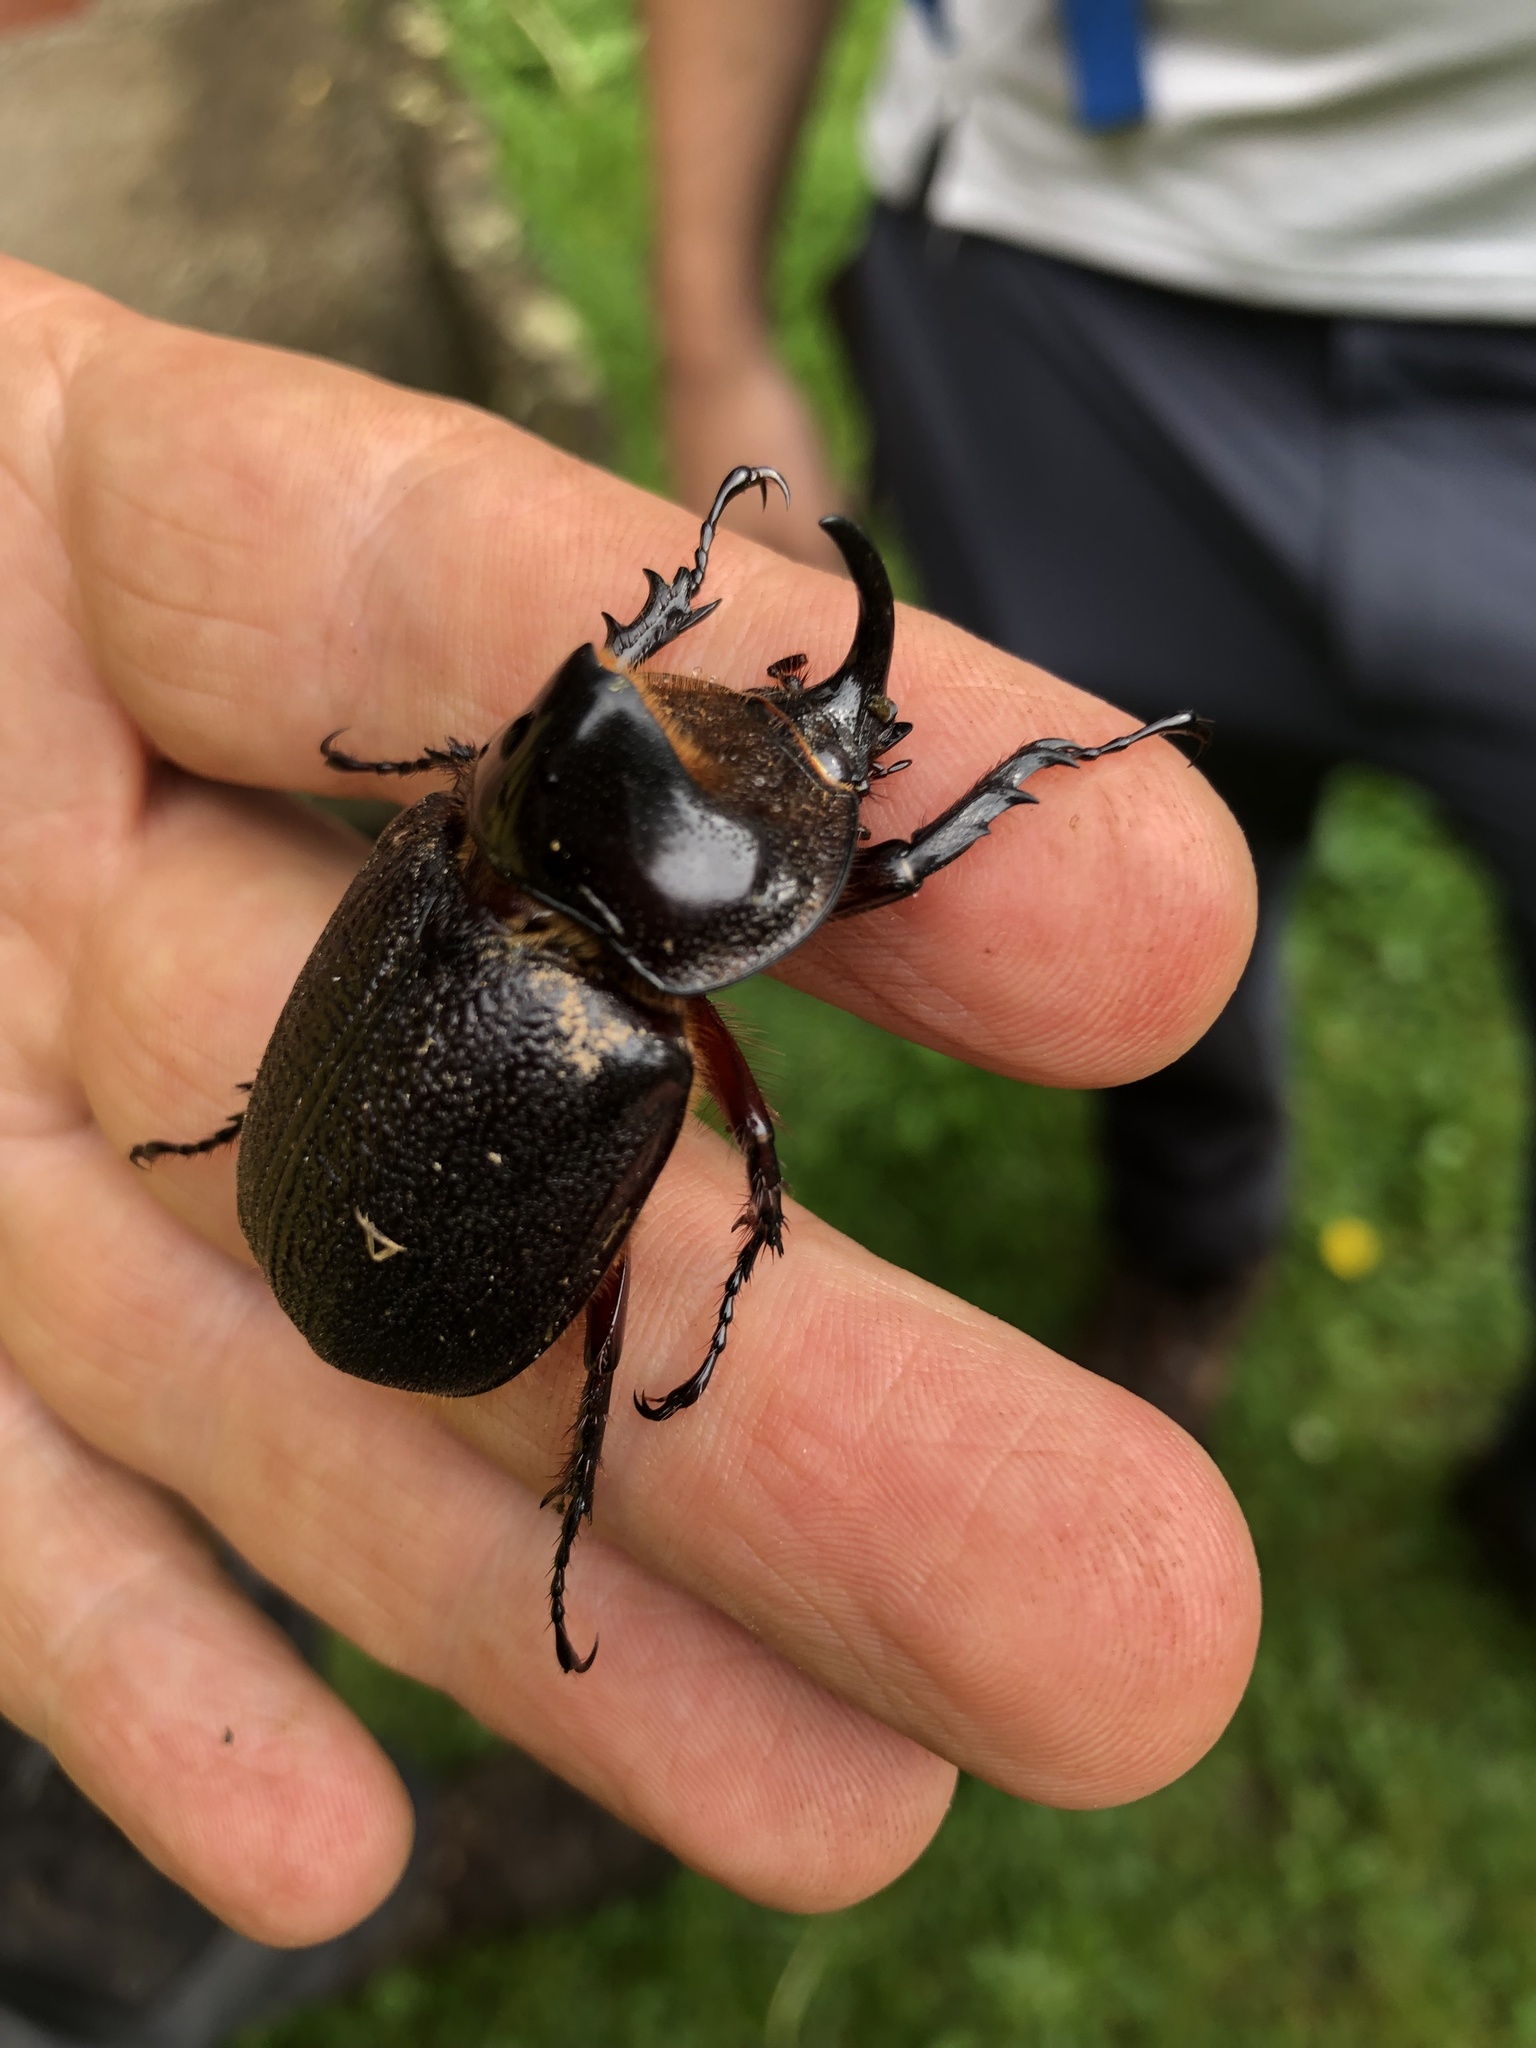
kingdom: Animalia
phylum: Arthropoda
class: Insecta
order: Coleoptera
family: Scarabaeidae
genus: Heterogomphus
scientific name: Heterogomphus schoenherri
